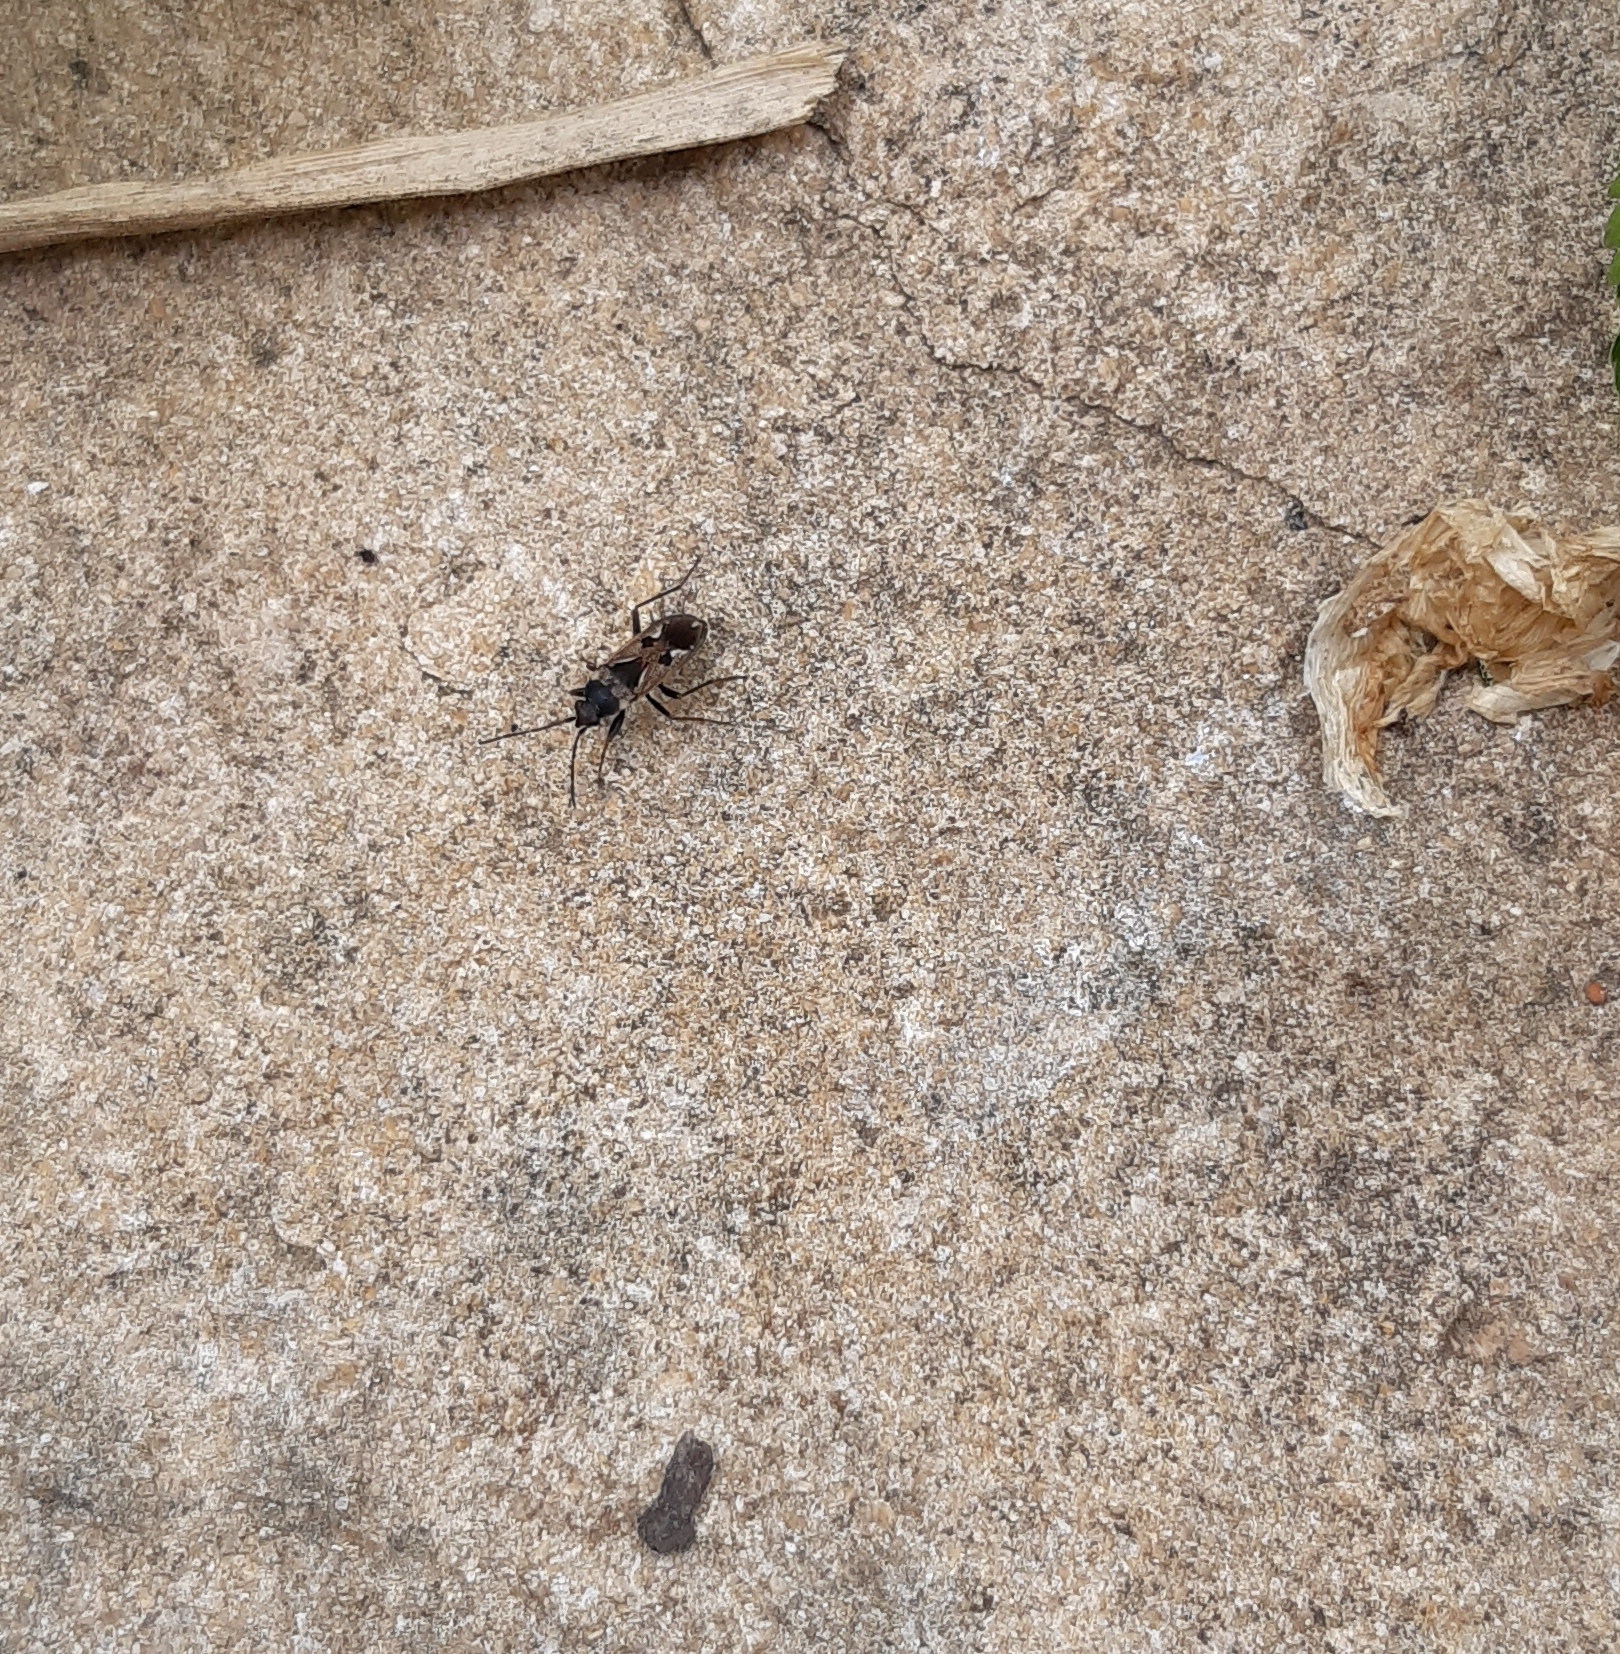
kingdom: Animalia
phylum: Arthropoda
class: Insecta
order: Hemiptera
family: Rhyparochromidae
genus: Rhyparochromus
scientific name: Rhyparochromus vulgaris
